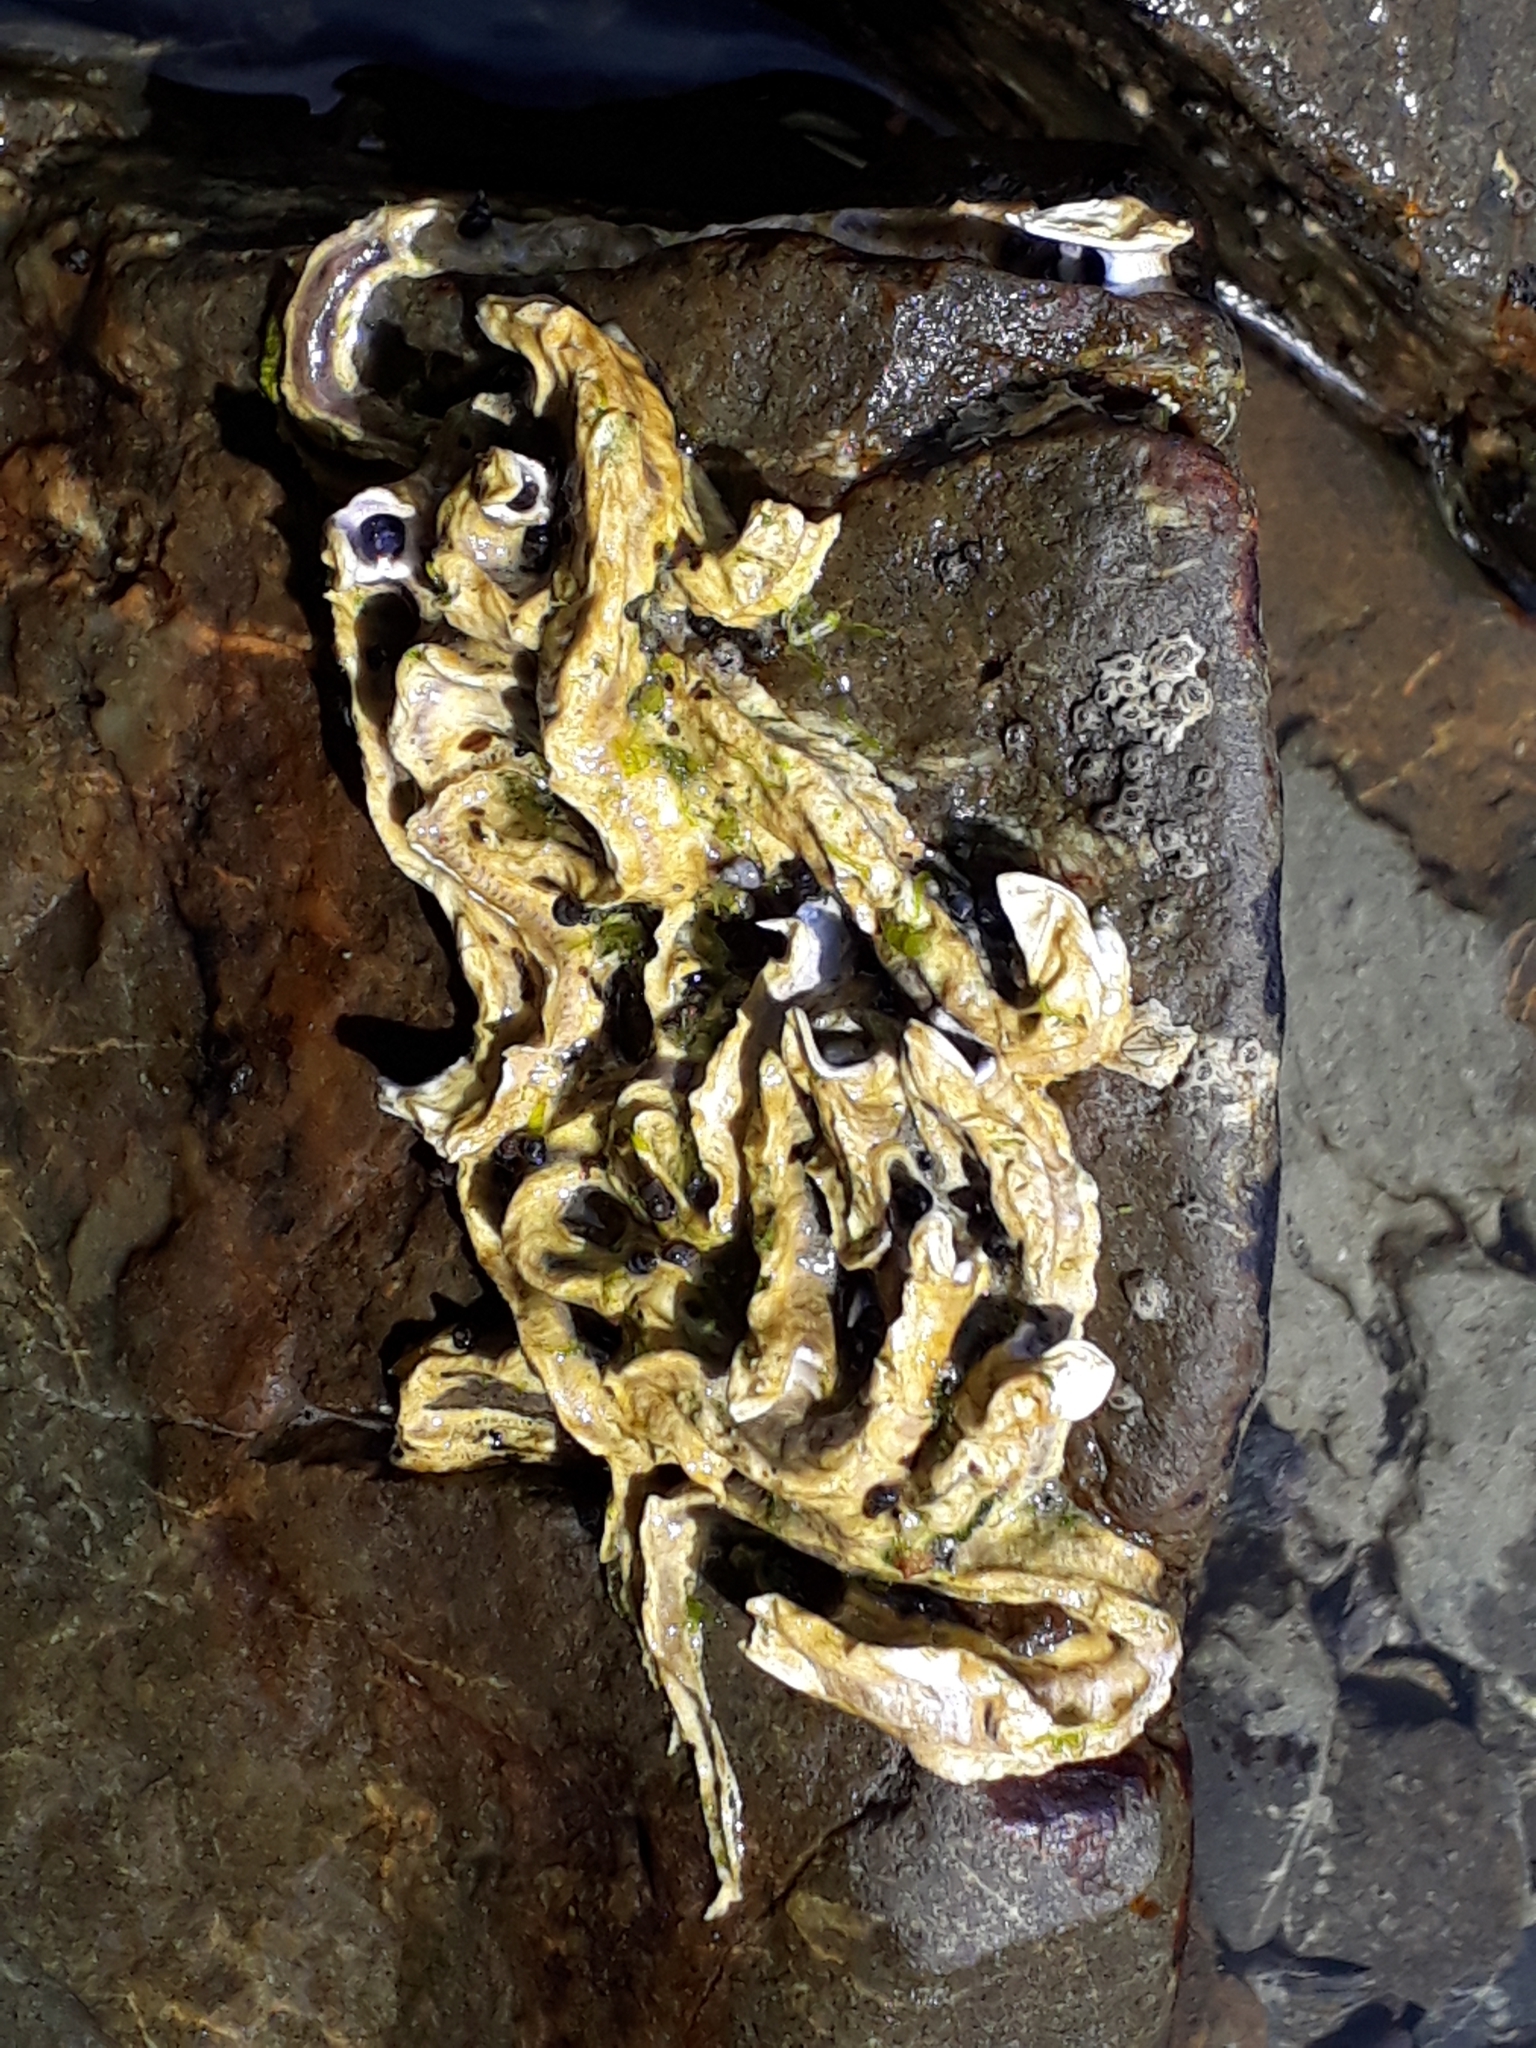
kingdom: Animalia
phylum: Annelida
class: Polychaeta
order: Sabellida
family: Serpulidae
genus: Spirobranchus
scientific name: Spirobranchus cariniferus
